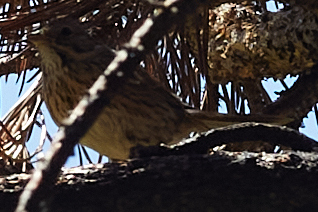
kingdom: Animalia
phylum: Chordata
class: Aves
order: Passeriformes
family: Passerellidae
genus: Melospiza
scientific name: Melospiza lincolnii
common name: Lincoln's sparrow
